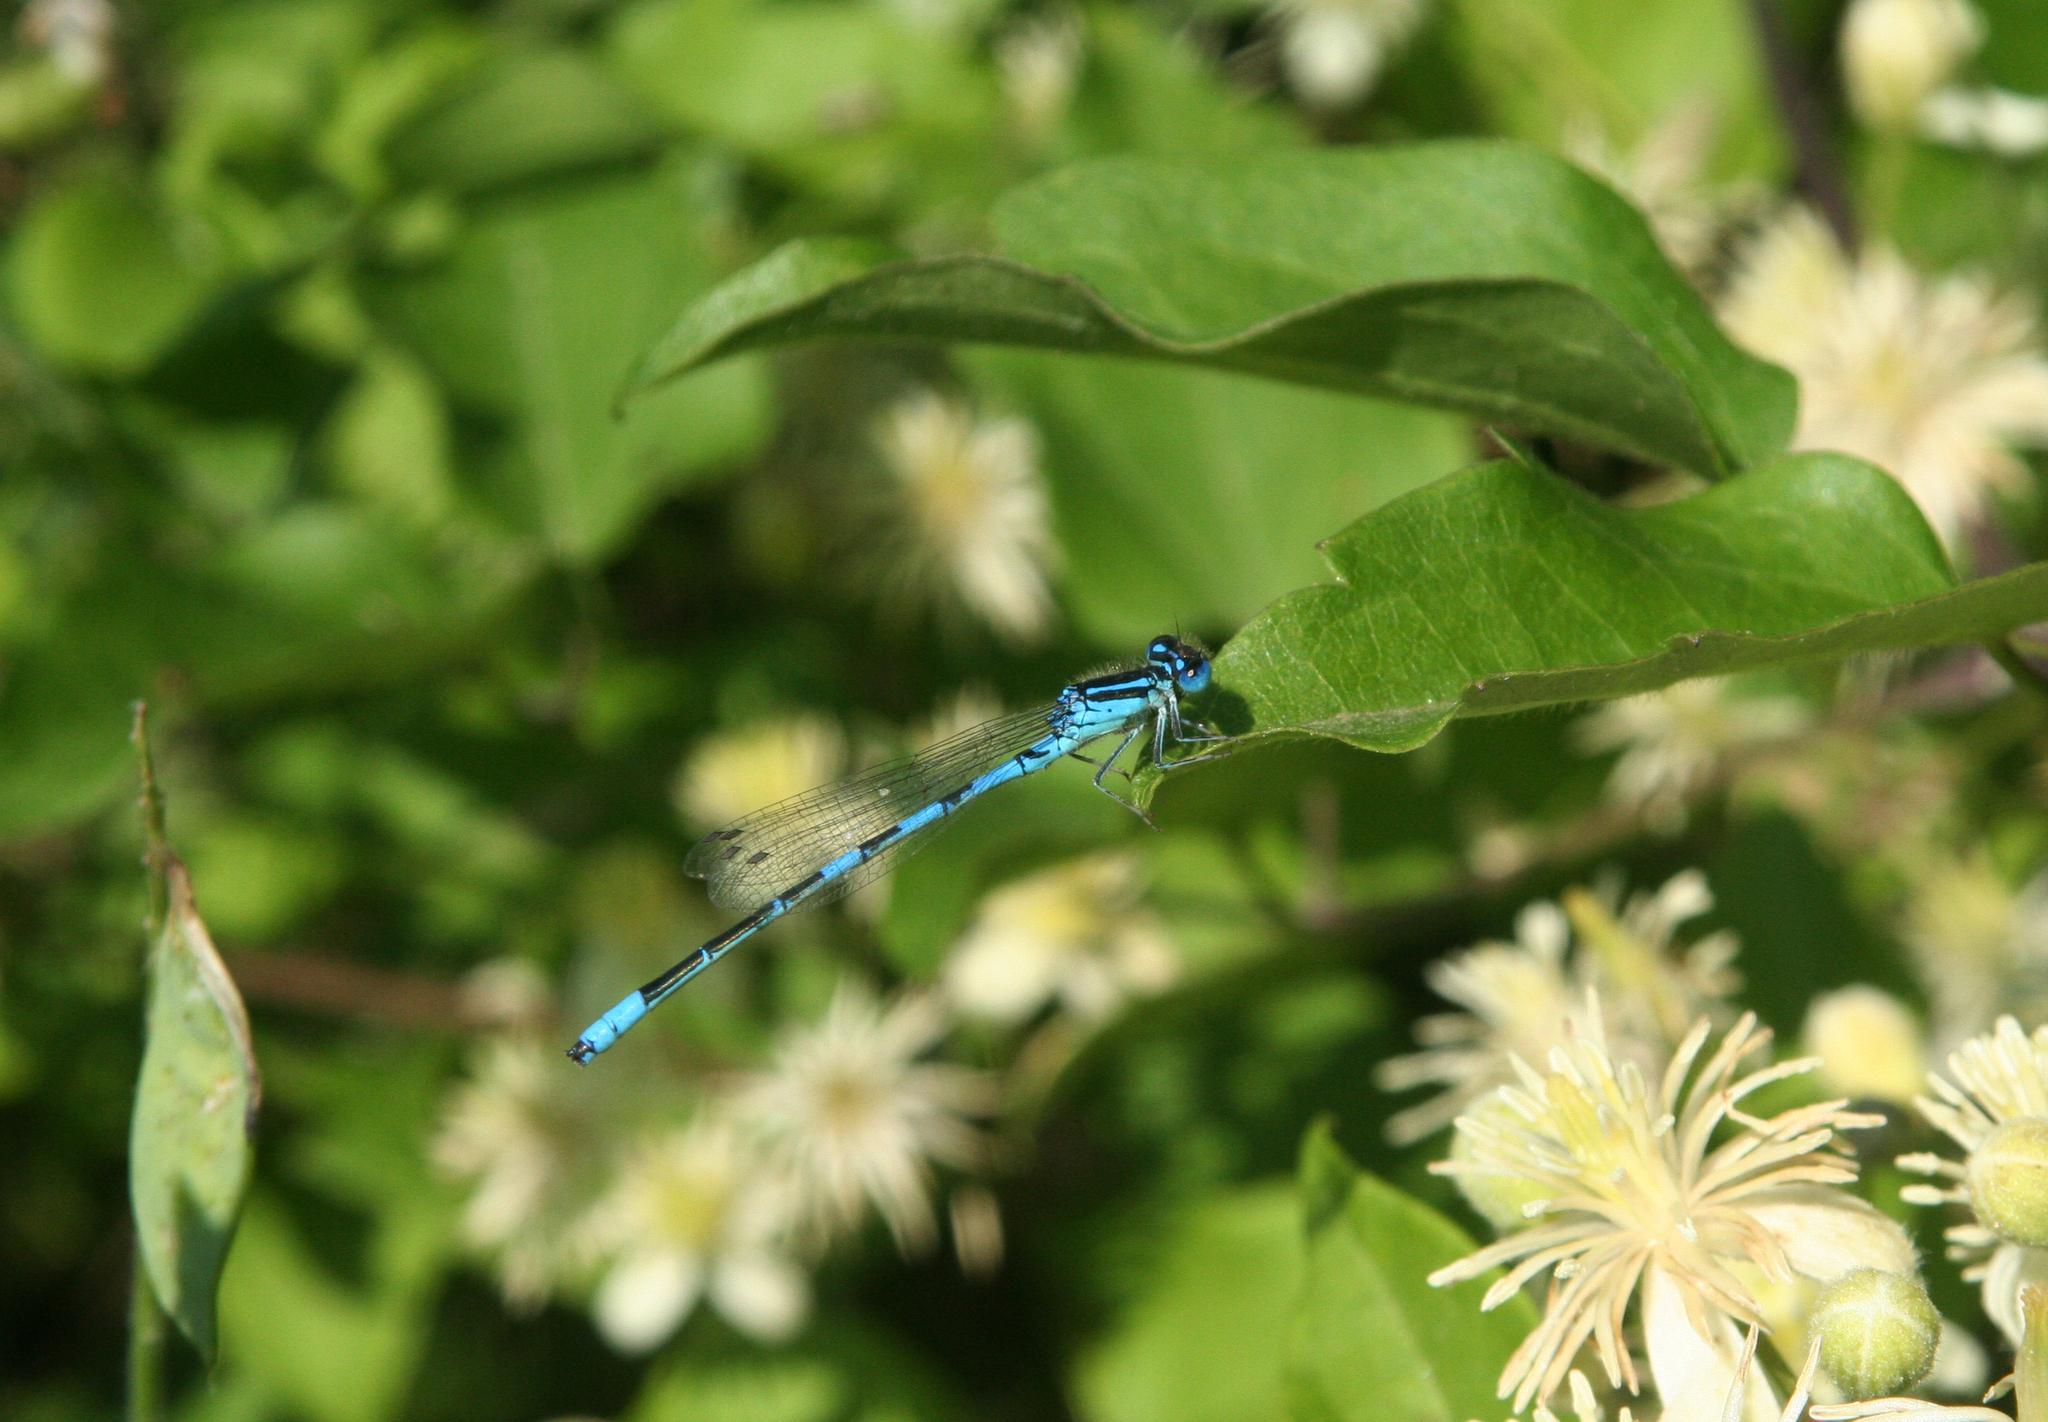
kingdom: Plantae
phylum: Tracheophyta
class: Magnoliopsida
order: Ranunculales
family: Ranunculaceae
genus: Clematis
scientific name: Clematis vitalba
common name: Evergreen clematis
